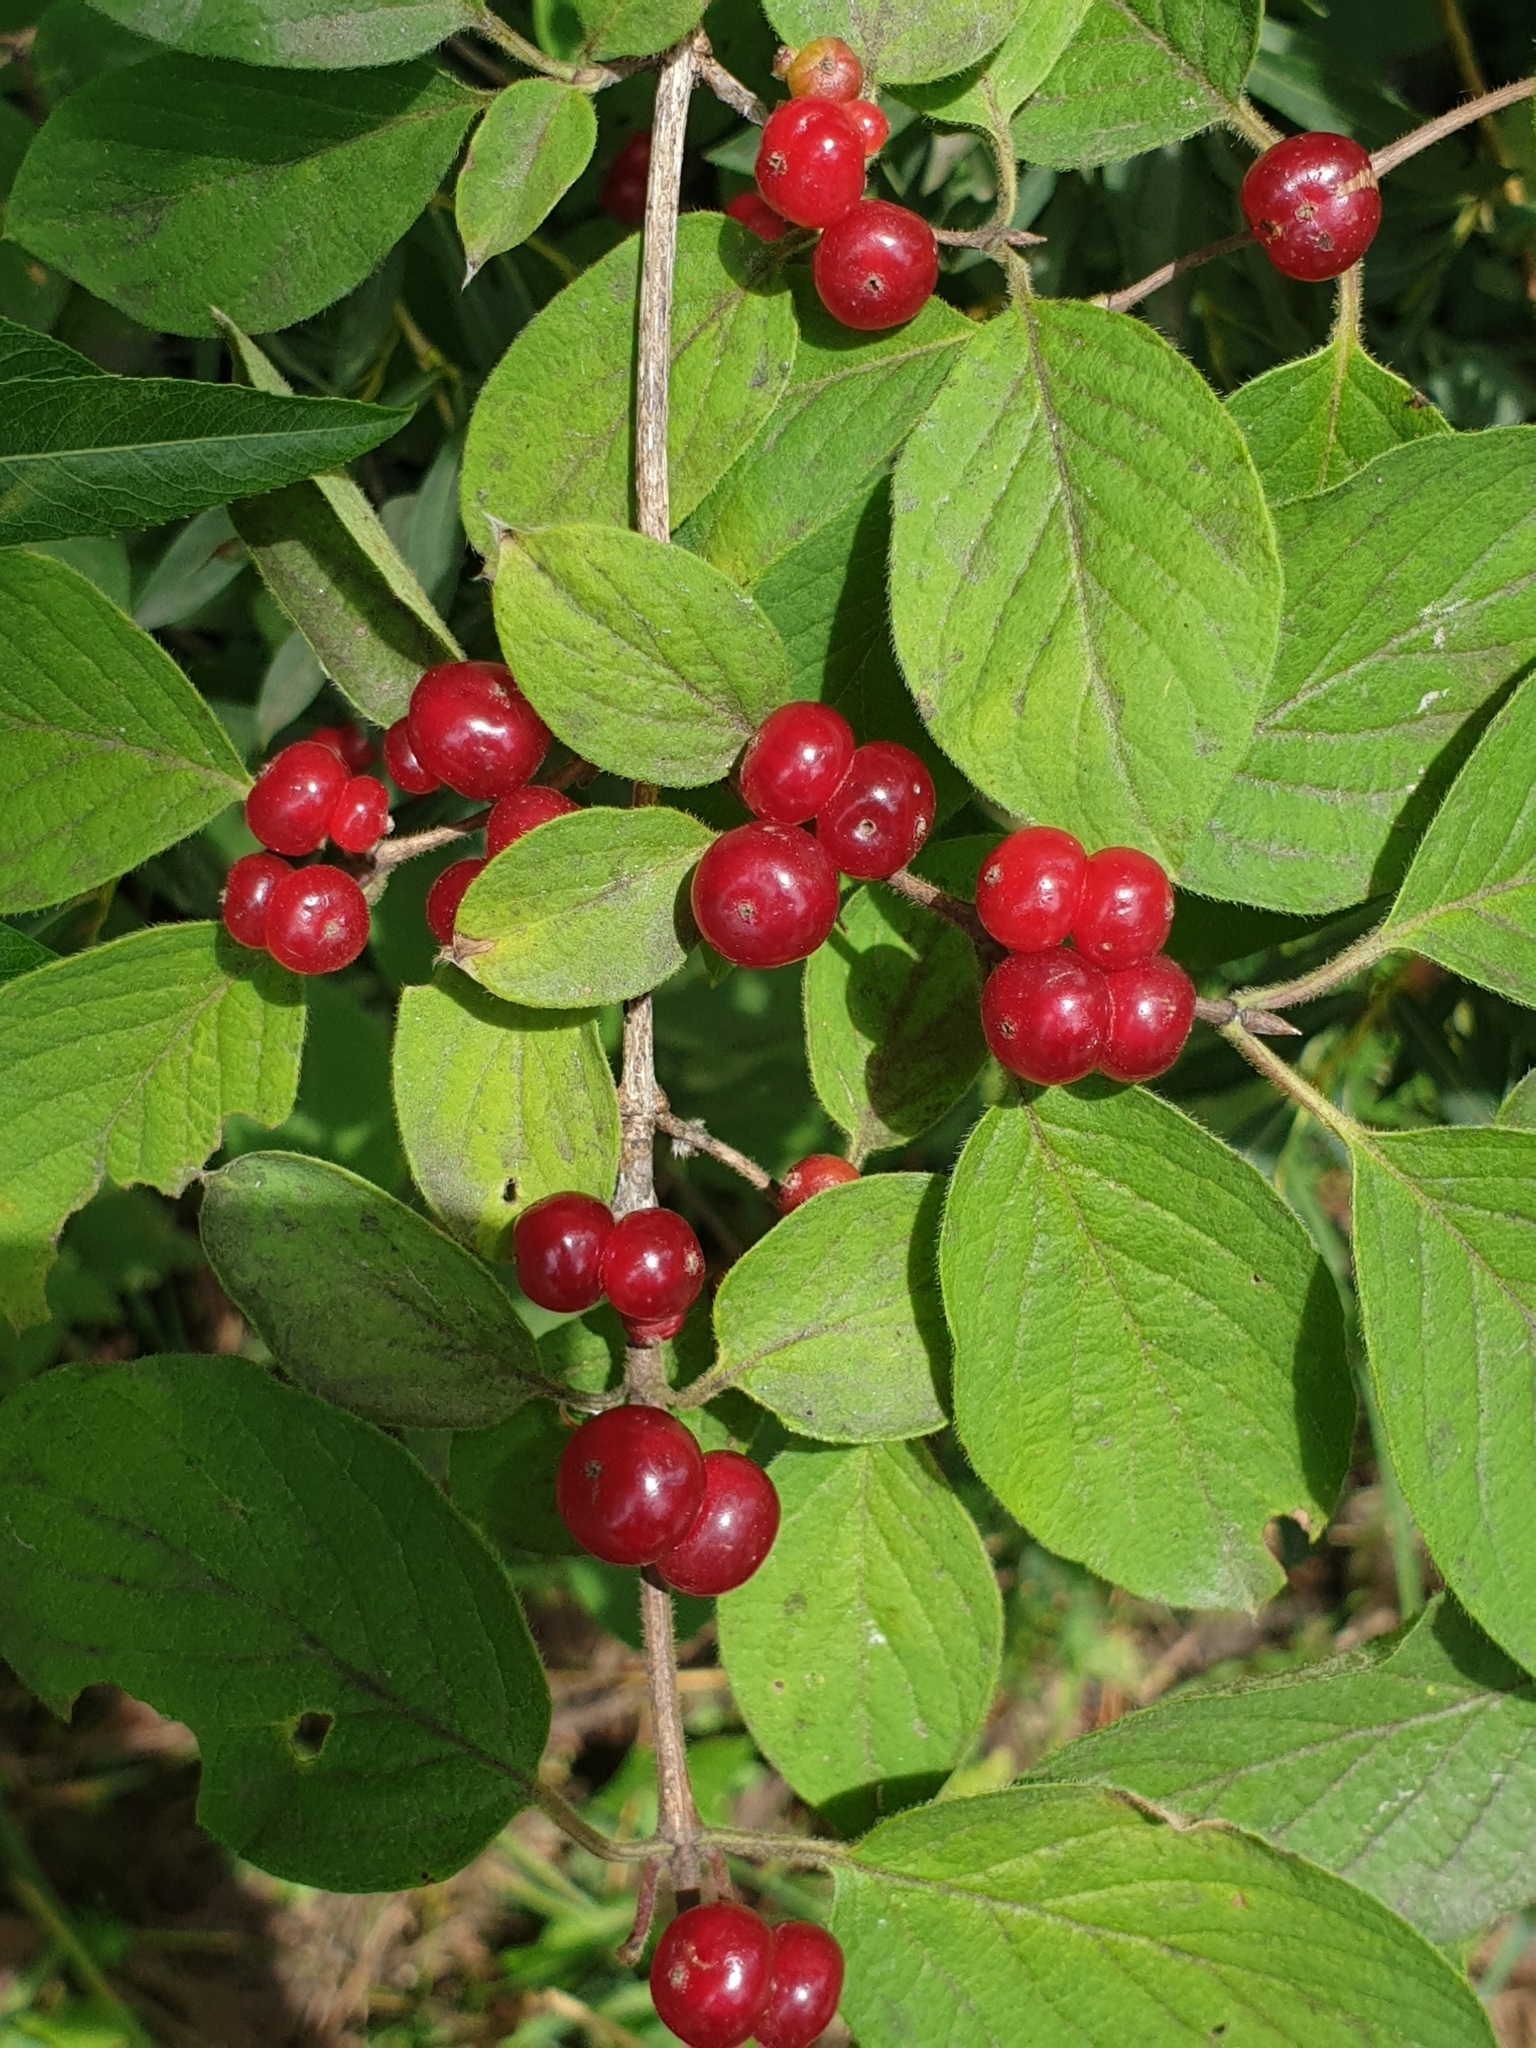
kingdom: Plantae
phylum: Tracheophyta
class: Magnoliopsida
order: Dipsacales
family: Caprifoliaceae
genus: Lonicera
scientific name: Lonicera xylosteum
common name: Fly honeysuckle
